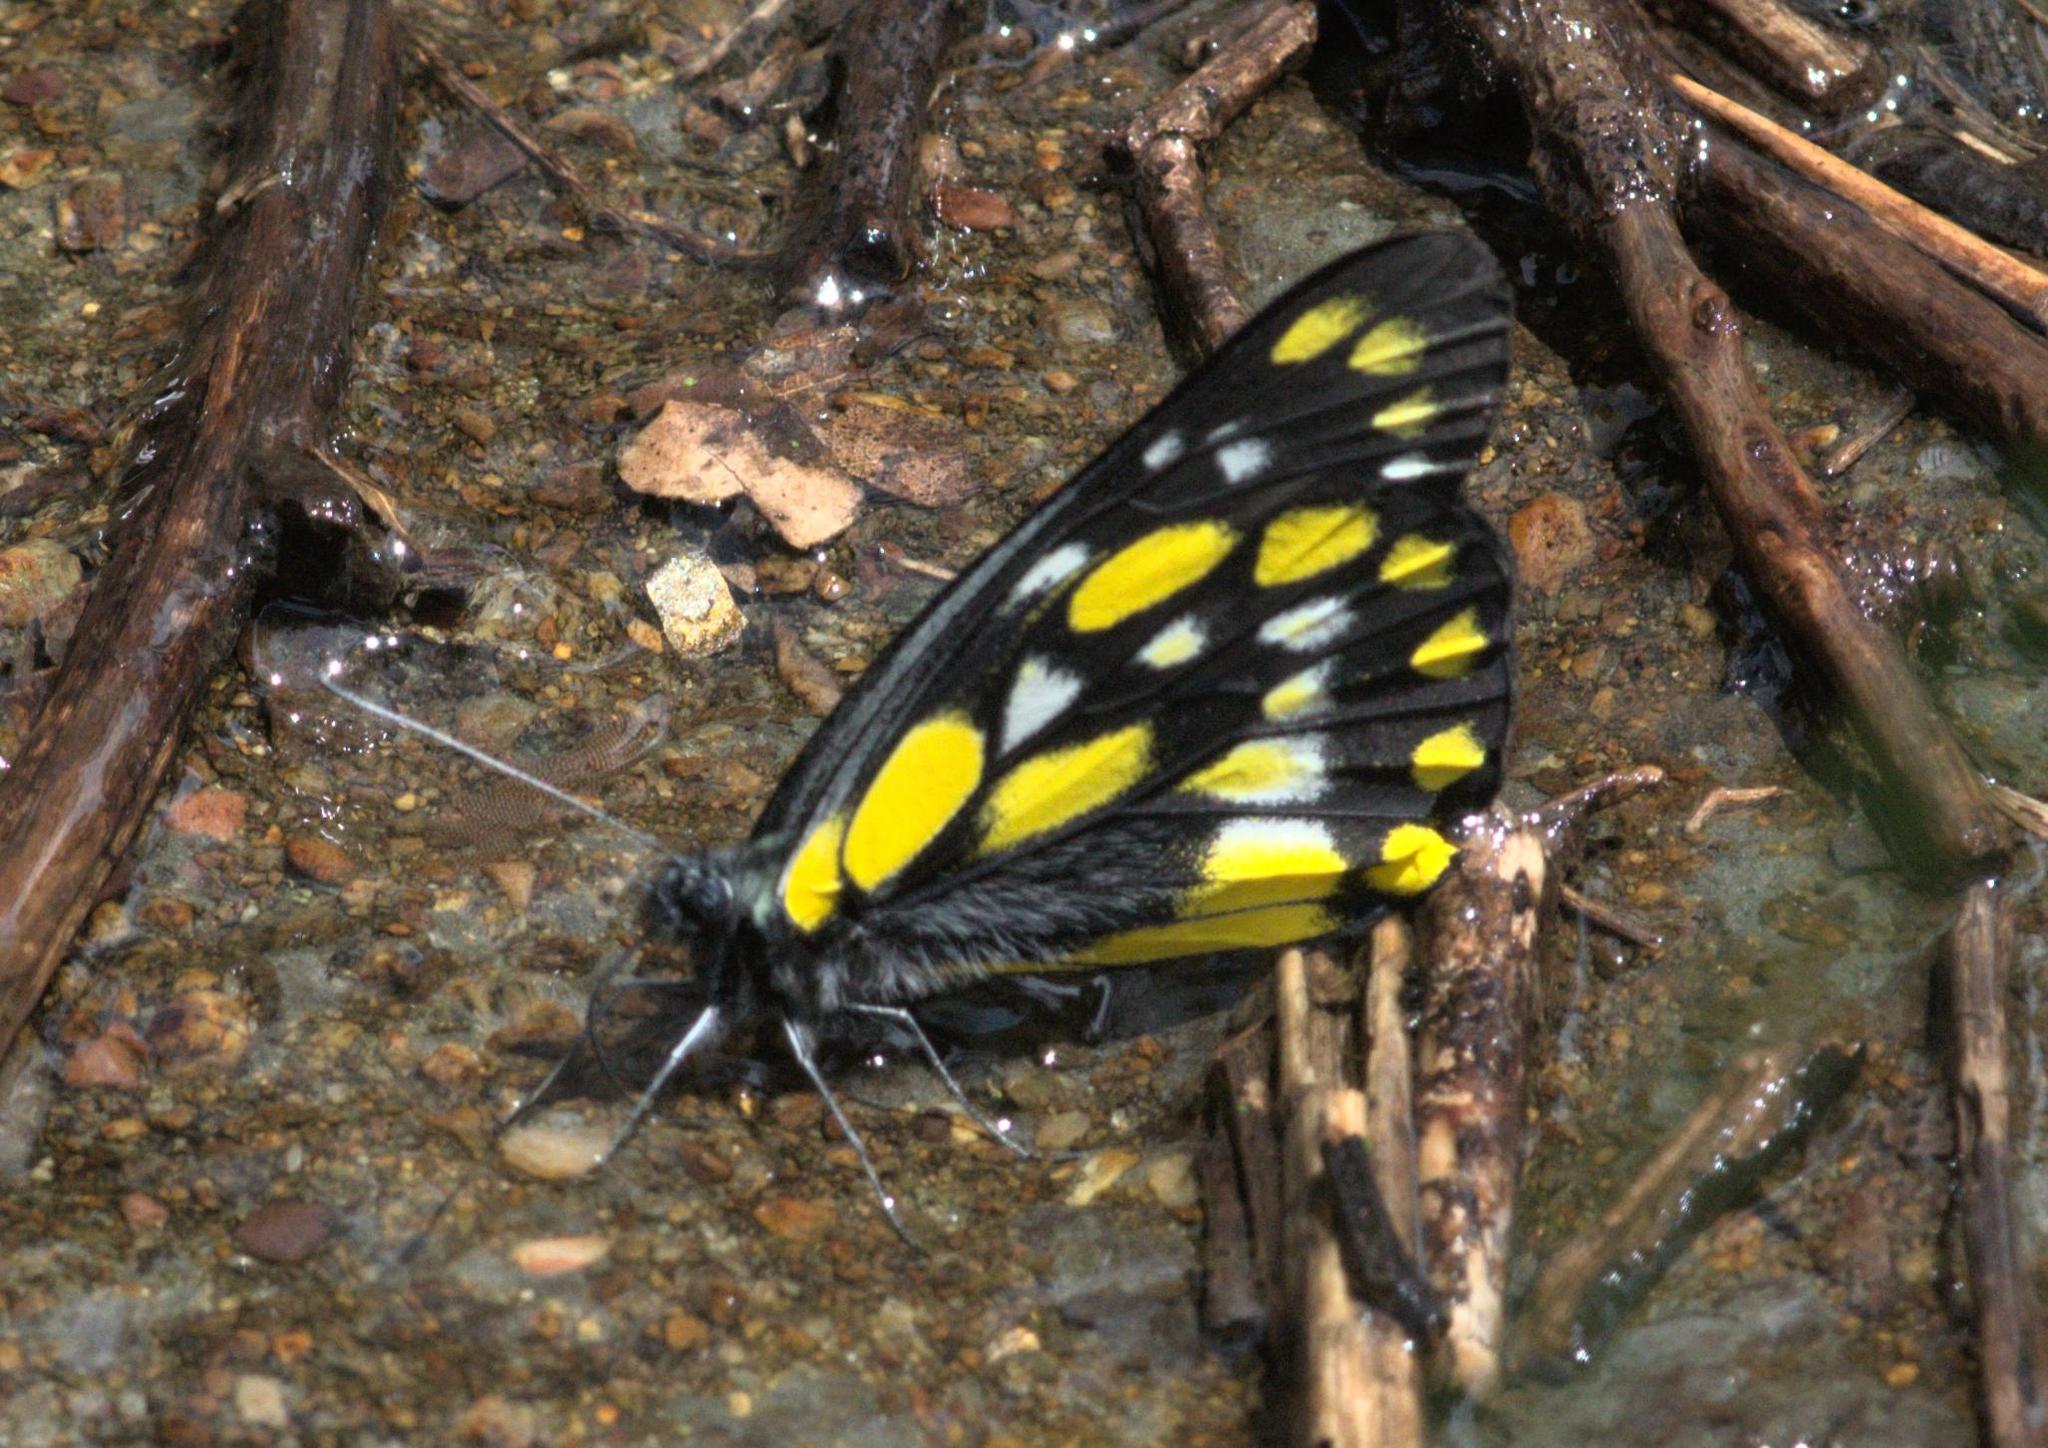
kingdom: Animalia
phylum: Arthropoda
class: Insecta
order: Lepidoptera
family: Pieridae
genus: Delias
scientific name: Delias belladonna
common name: Hill jezebel
